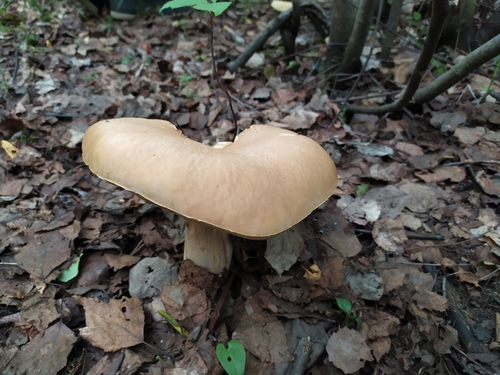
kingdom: Fungi
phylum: Basidiomycota
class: Agaricomycetes
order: Boletales
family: Boletaceae
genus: Boletus
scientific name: Boletus edulis
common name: Cep
